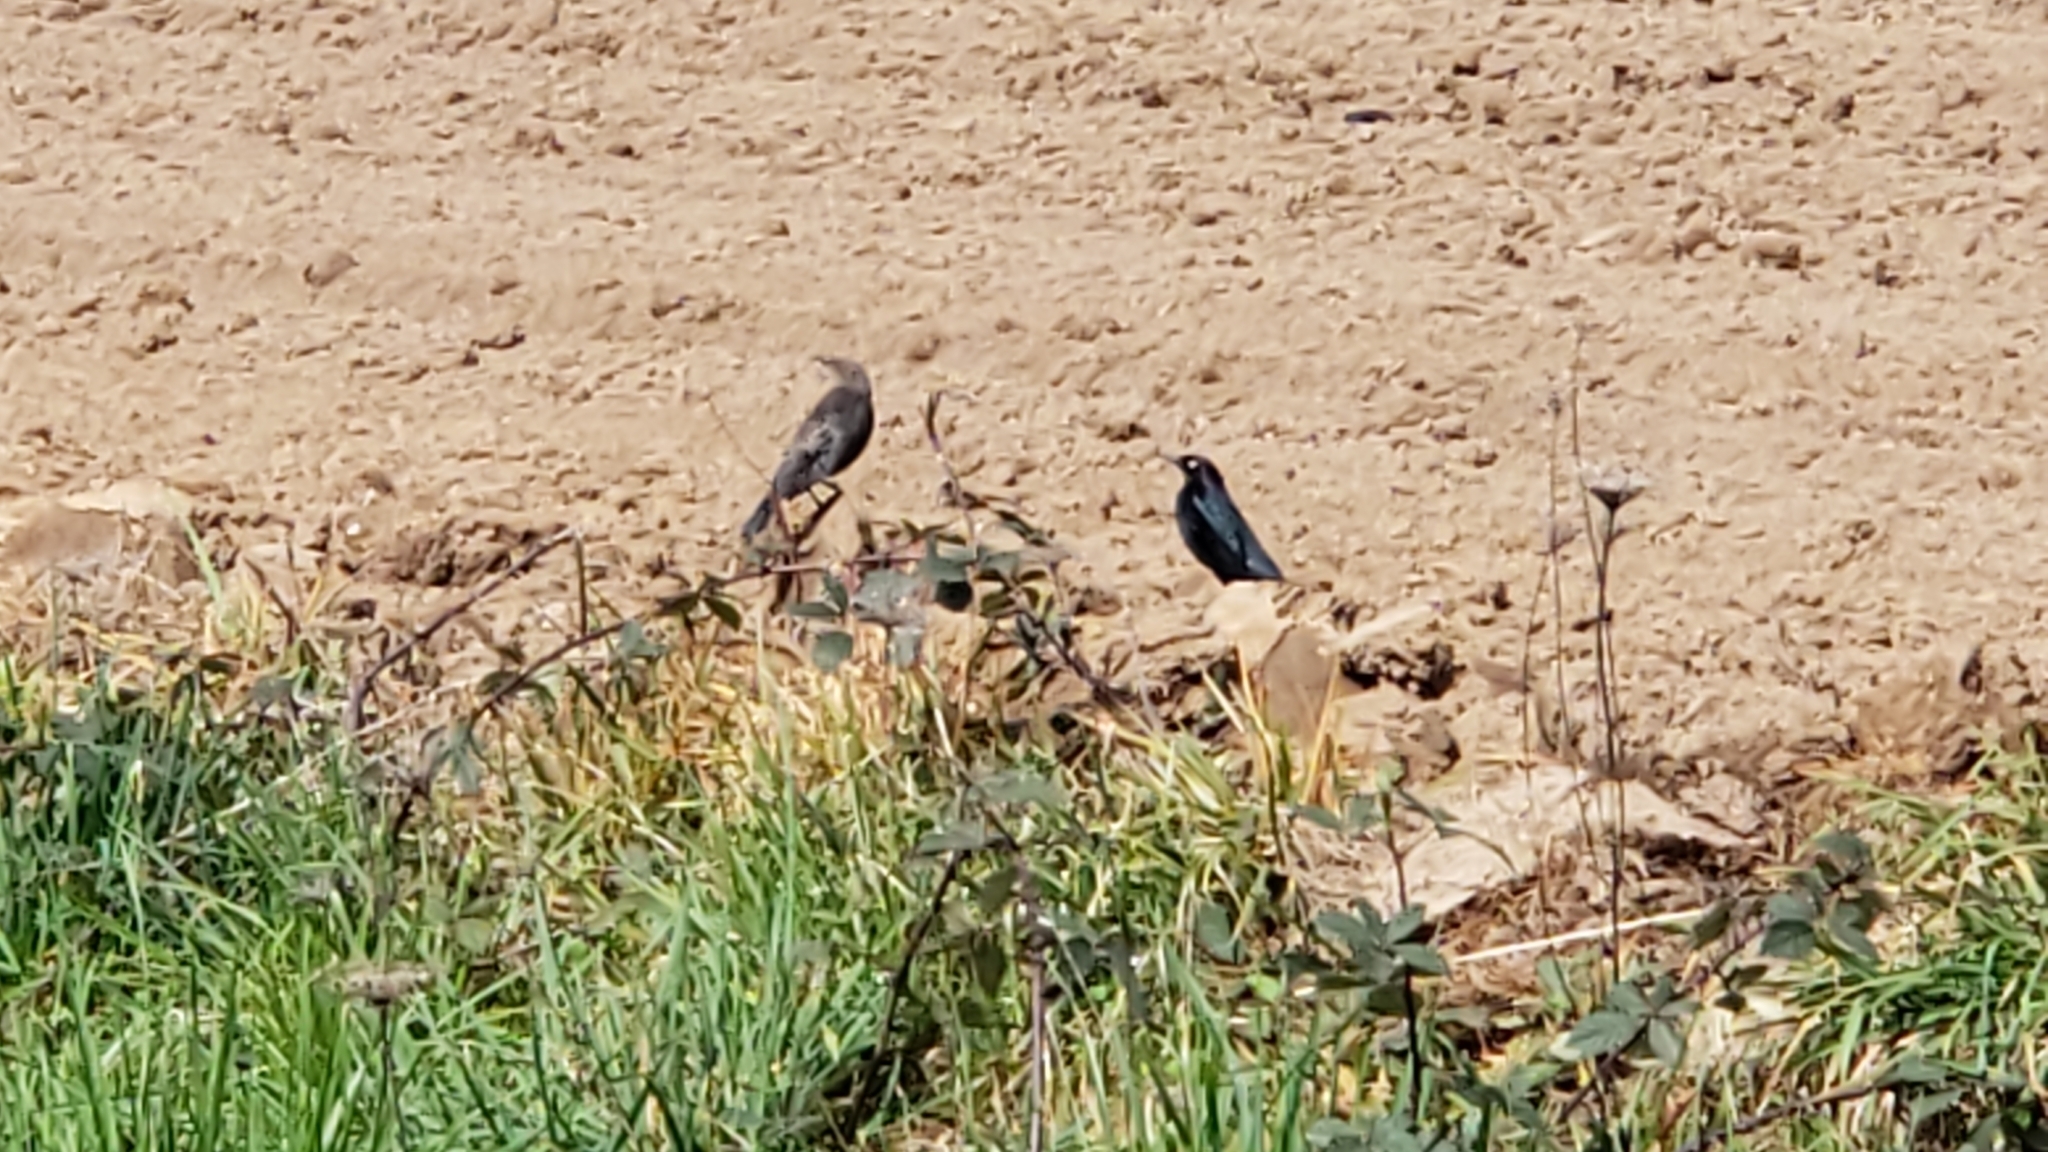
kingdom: Animalia
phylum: Chordata
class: Aves
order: Passeriformes
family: Icteridae
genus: Euphagus
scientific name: Euphagus cyanocephalus
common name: Brewer's blackbird
